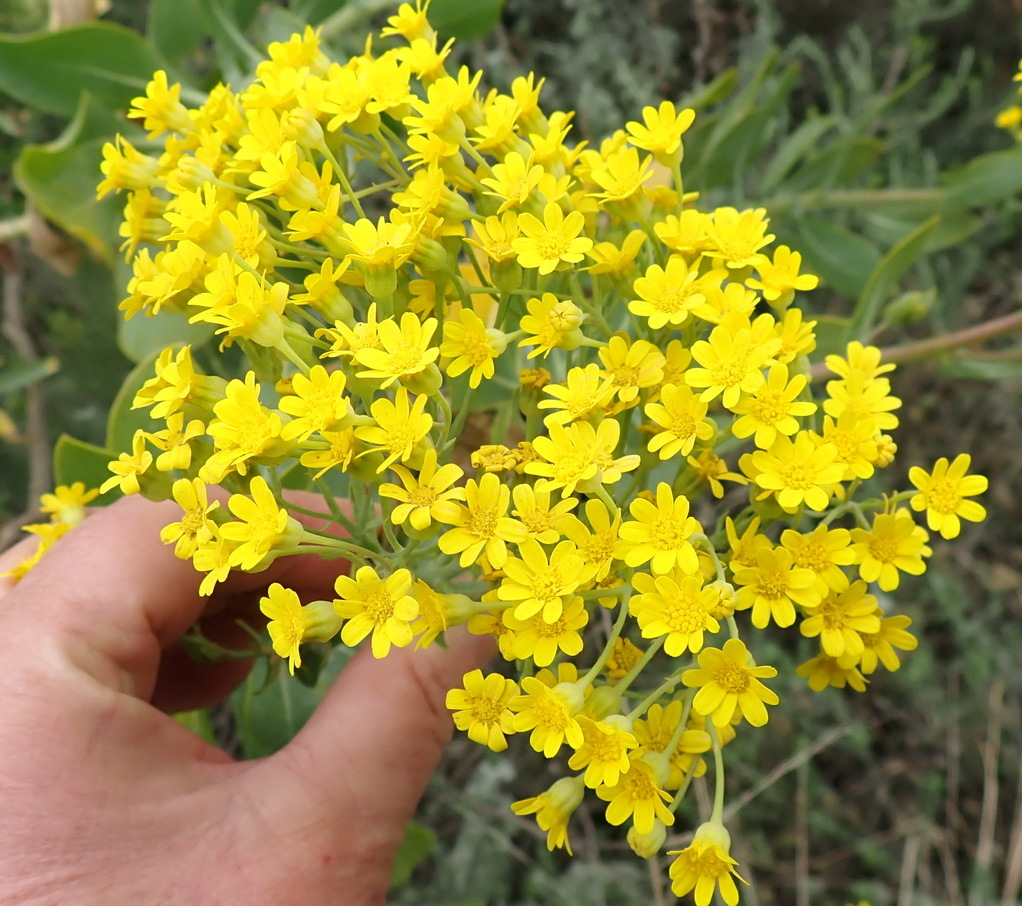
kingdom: Plantae
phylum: Tracheophyta
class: Magnoliopsida
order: Asterales
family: Asteraceae
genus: Othonna
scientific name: Othonna parviflora
